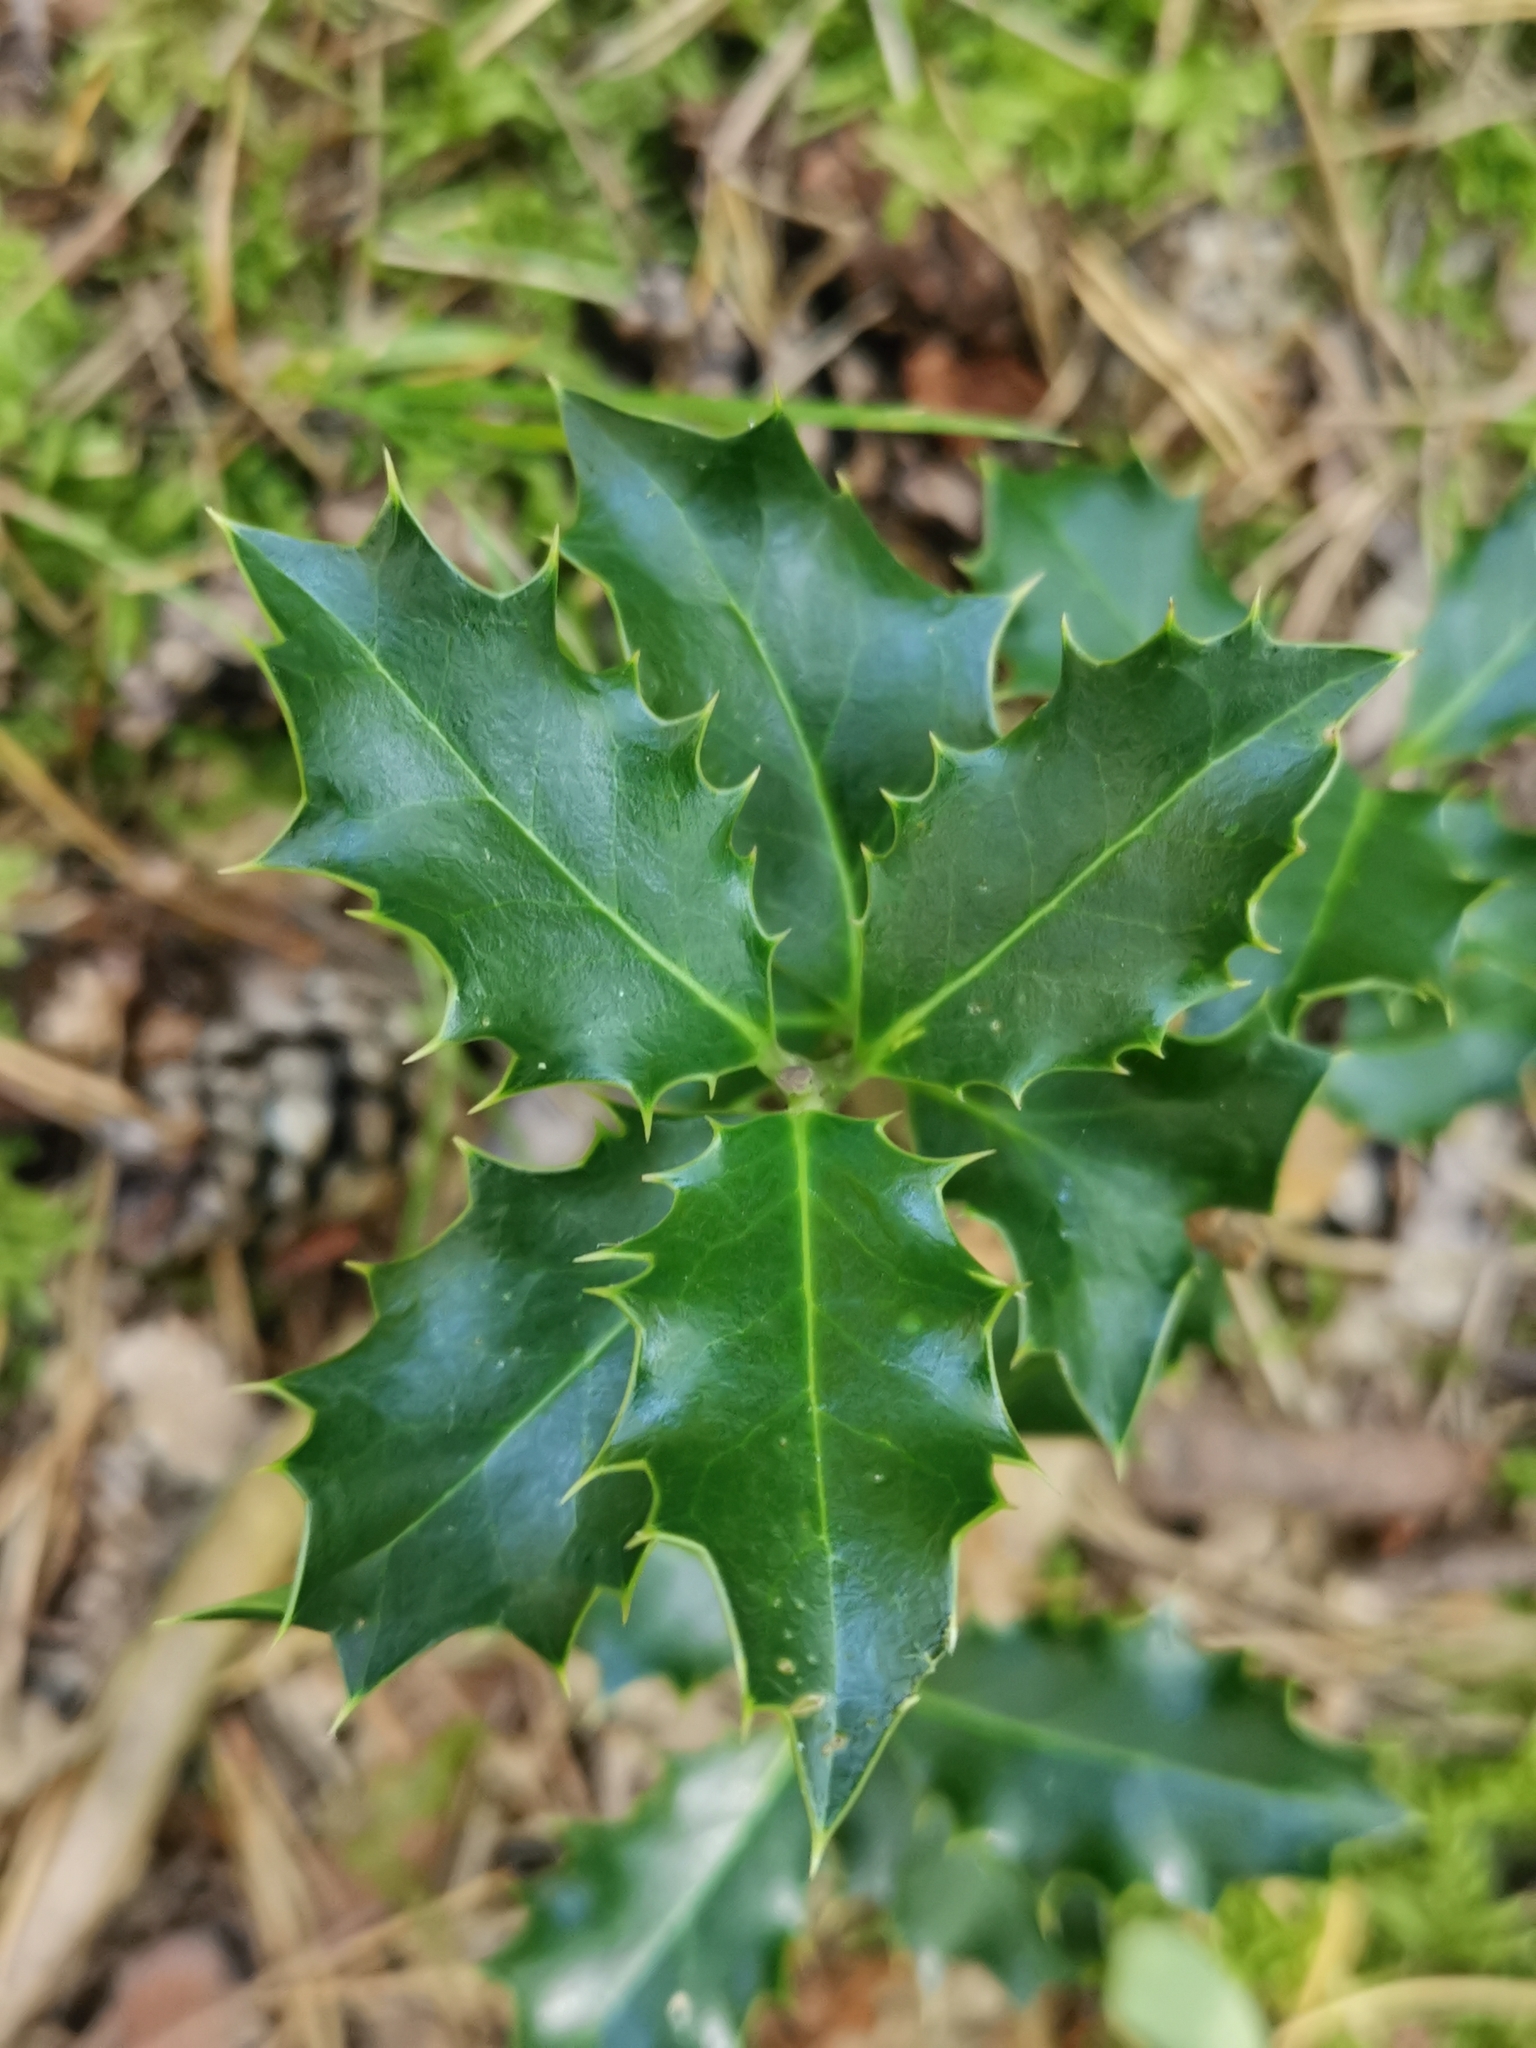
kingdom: Plantae
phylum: Tracheophyta
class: Magnoliopsida
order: Aquifoliales
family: Aquifoliaceae
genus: Ilex
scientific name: Ilex aquifolium
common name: English holly
